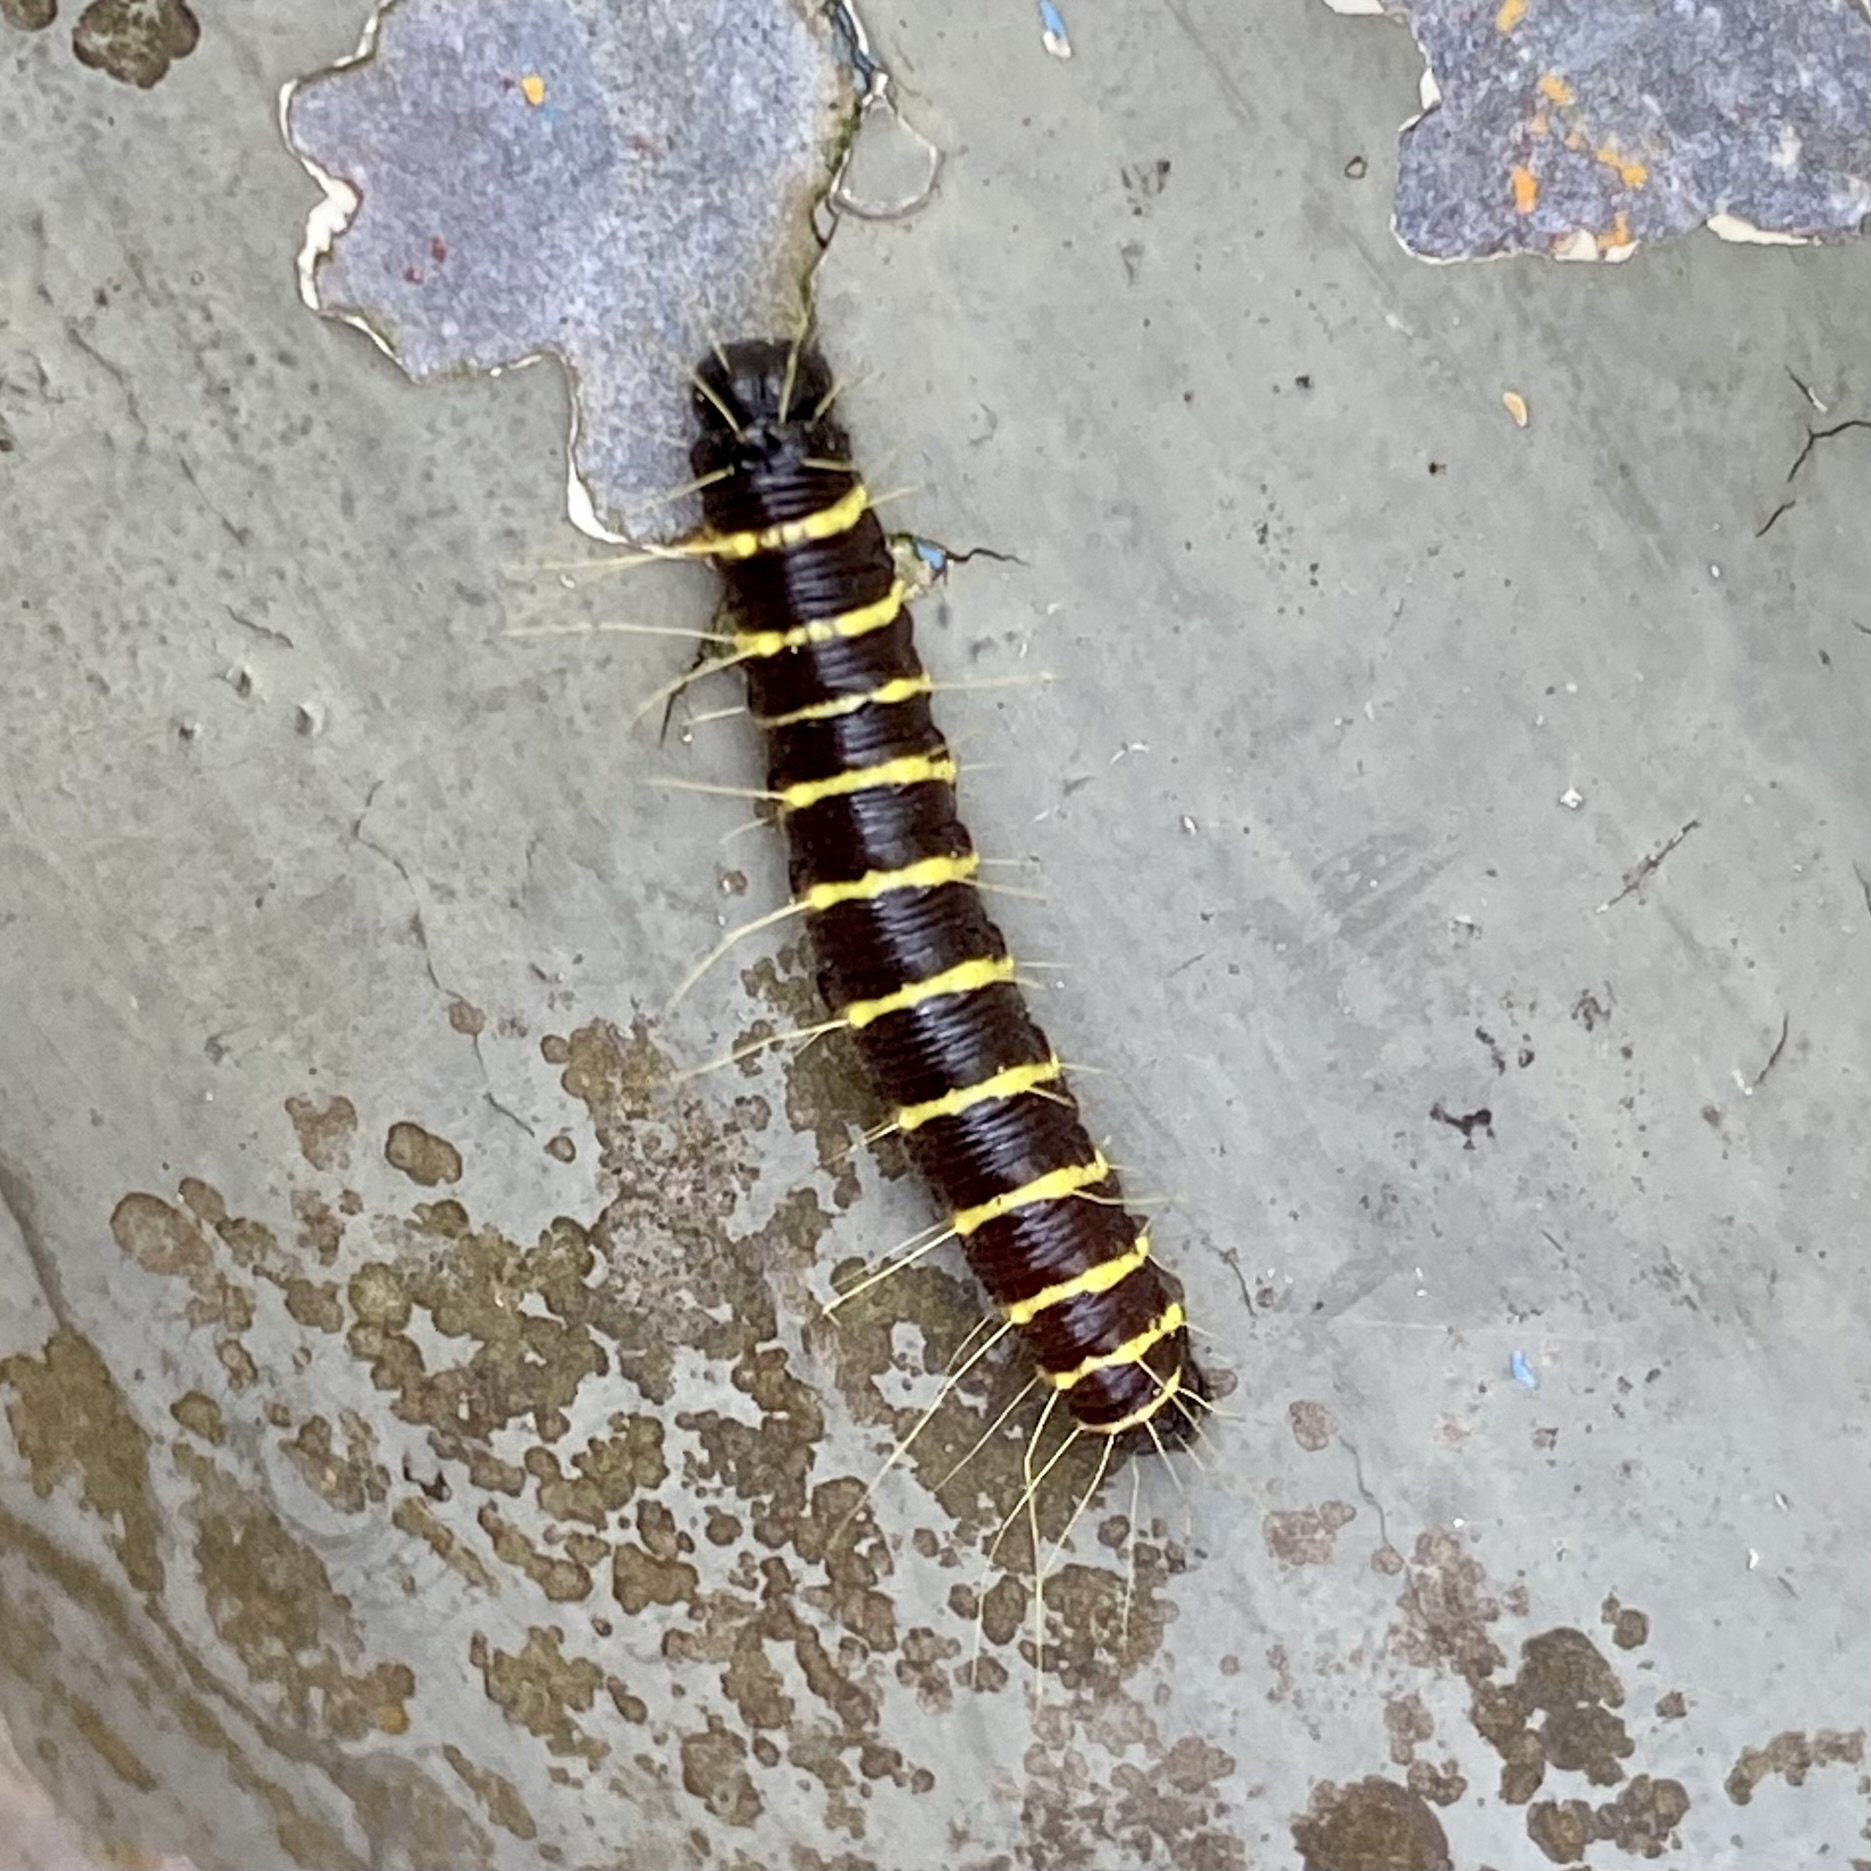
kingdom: Animalia
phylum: Arthropoda
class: Insecta
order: Lepidoptera
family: Pieridae
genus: Delias
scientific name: Delias pasithoe
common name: Red-base jezebel
